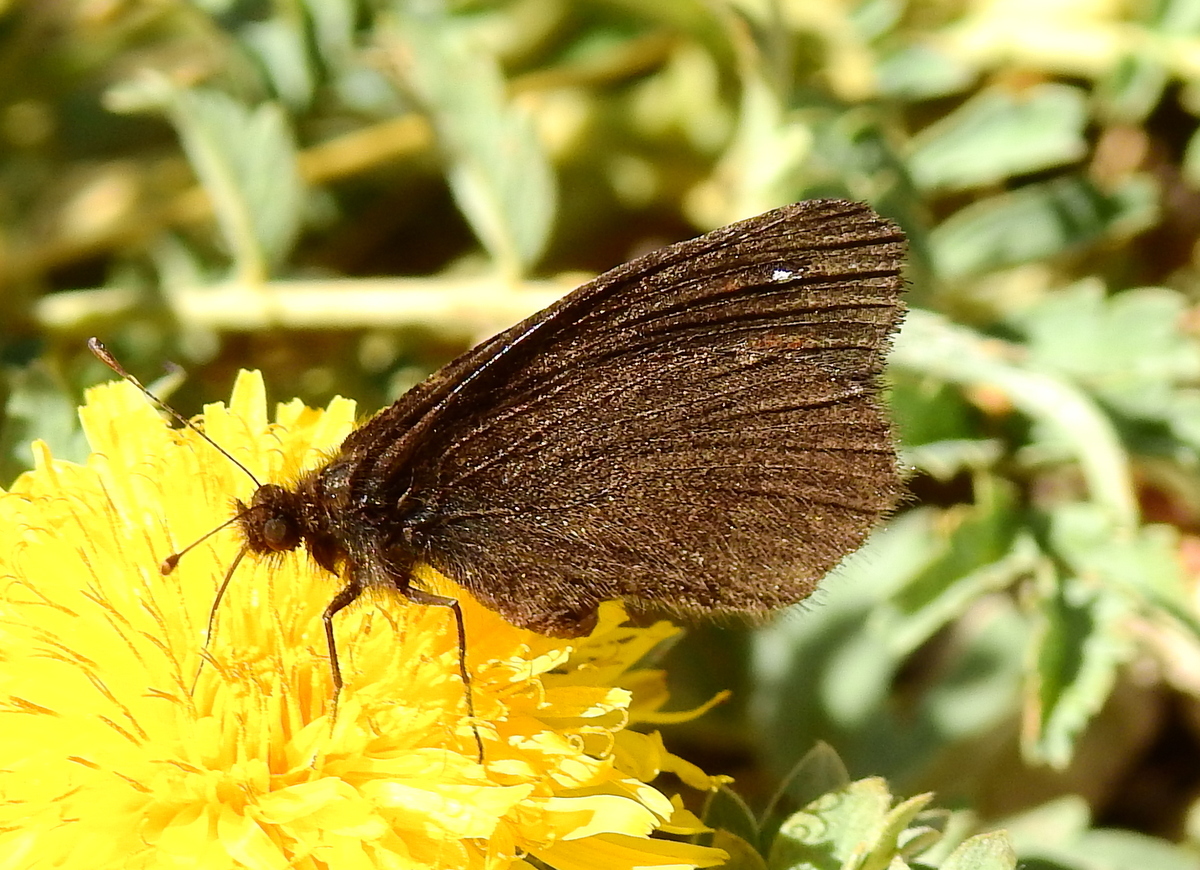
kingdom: Animalia
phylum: Arthropoda
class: Insecta
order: Lepidoptera
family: Nymphalidae
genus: Faunula
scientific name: Faunula leucoglene
